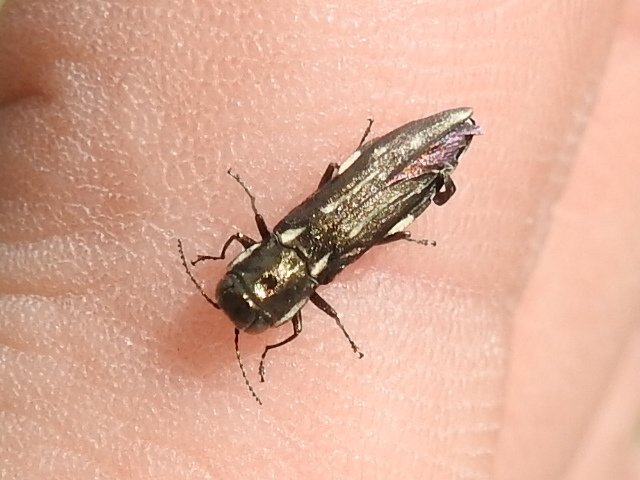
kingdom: Animalia
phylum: Arthropoda
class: Insecta
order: Coleoptera
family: Buprestidae
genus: Agrilus
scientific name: Agrilus obsoletoguttatus
